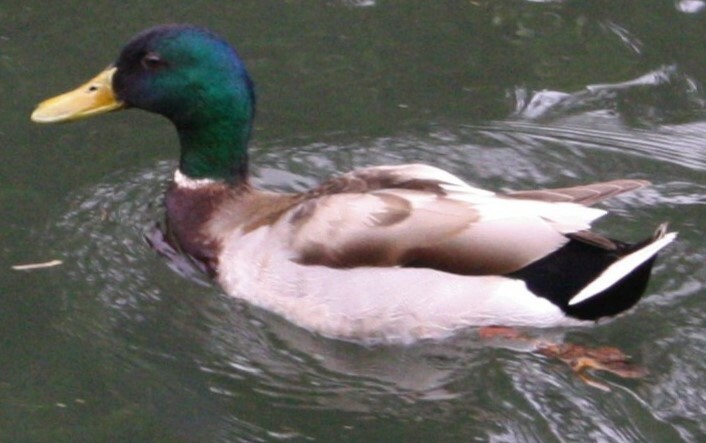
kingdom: Animalia
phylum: Chordata
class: Aves
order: Anseriformes
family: Anatidae
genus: Anas
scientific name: Anas platyrhynchos
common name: Mallard
